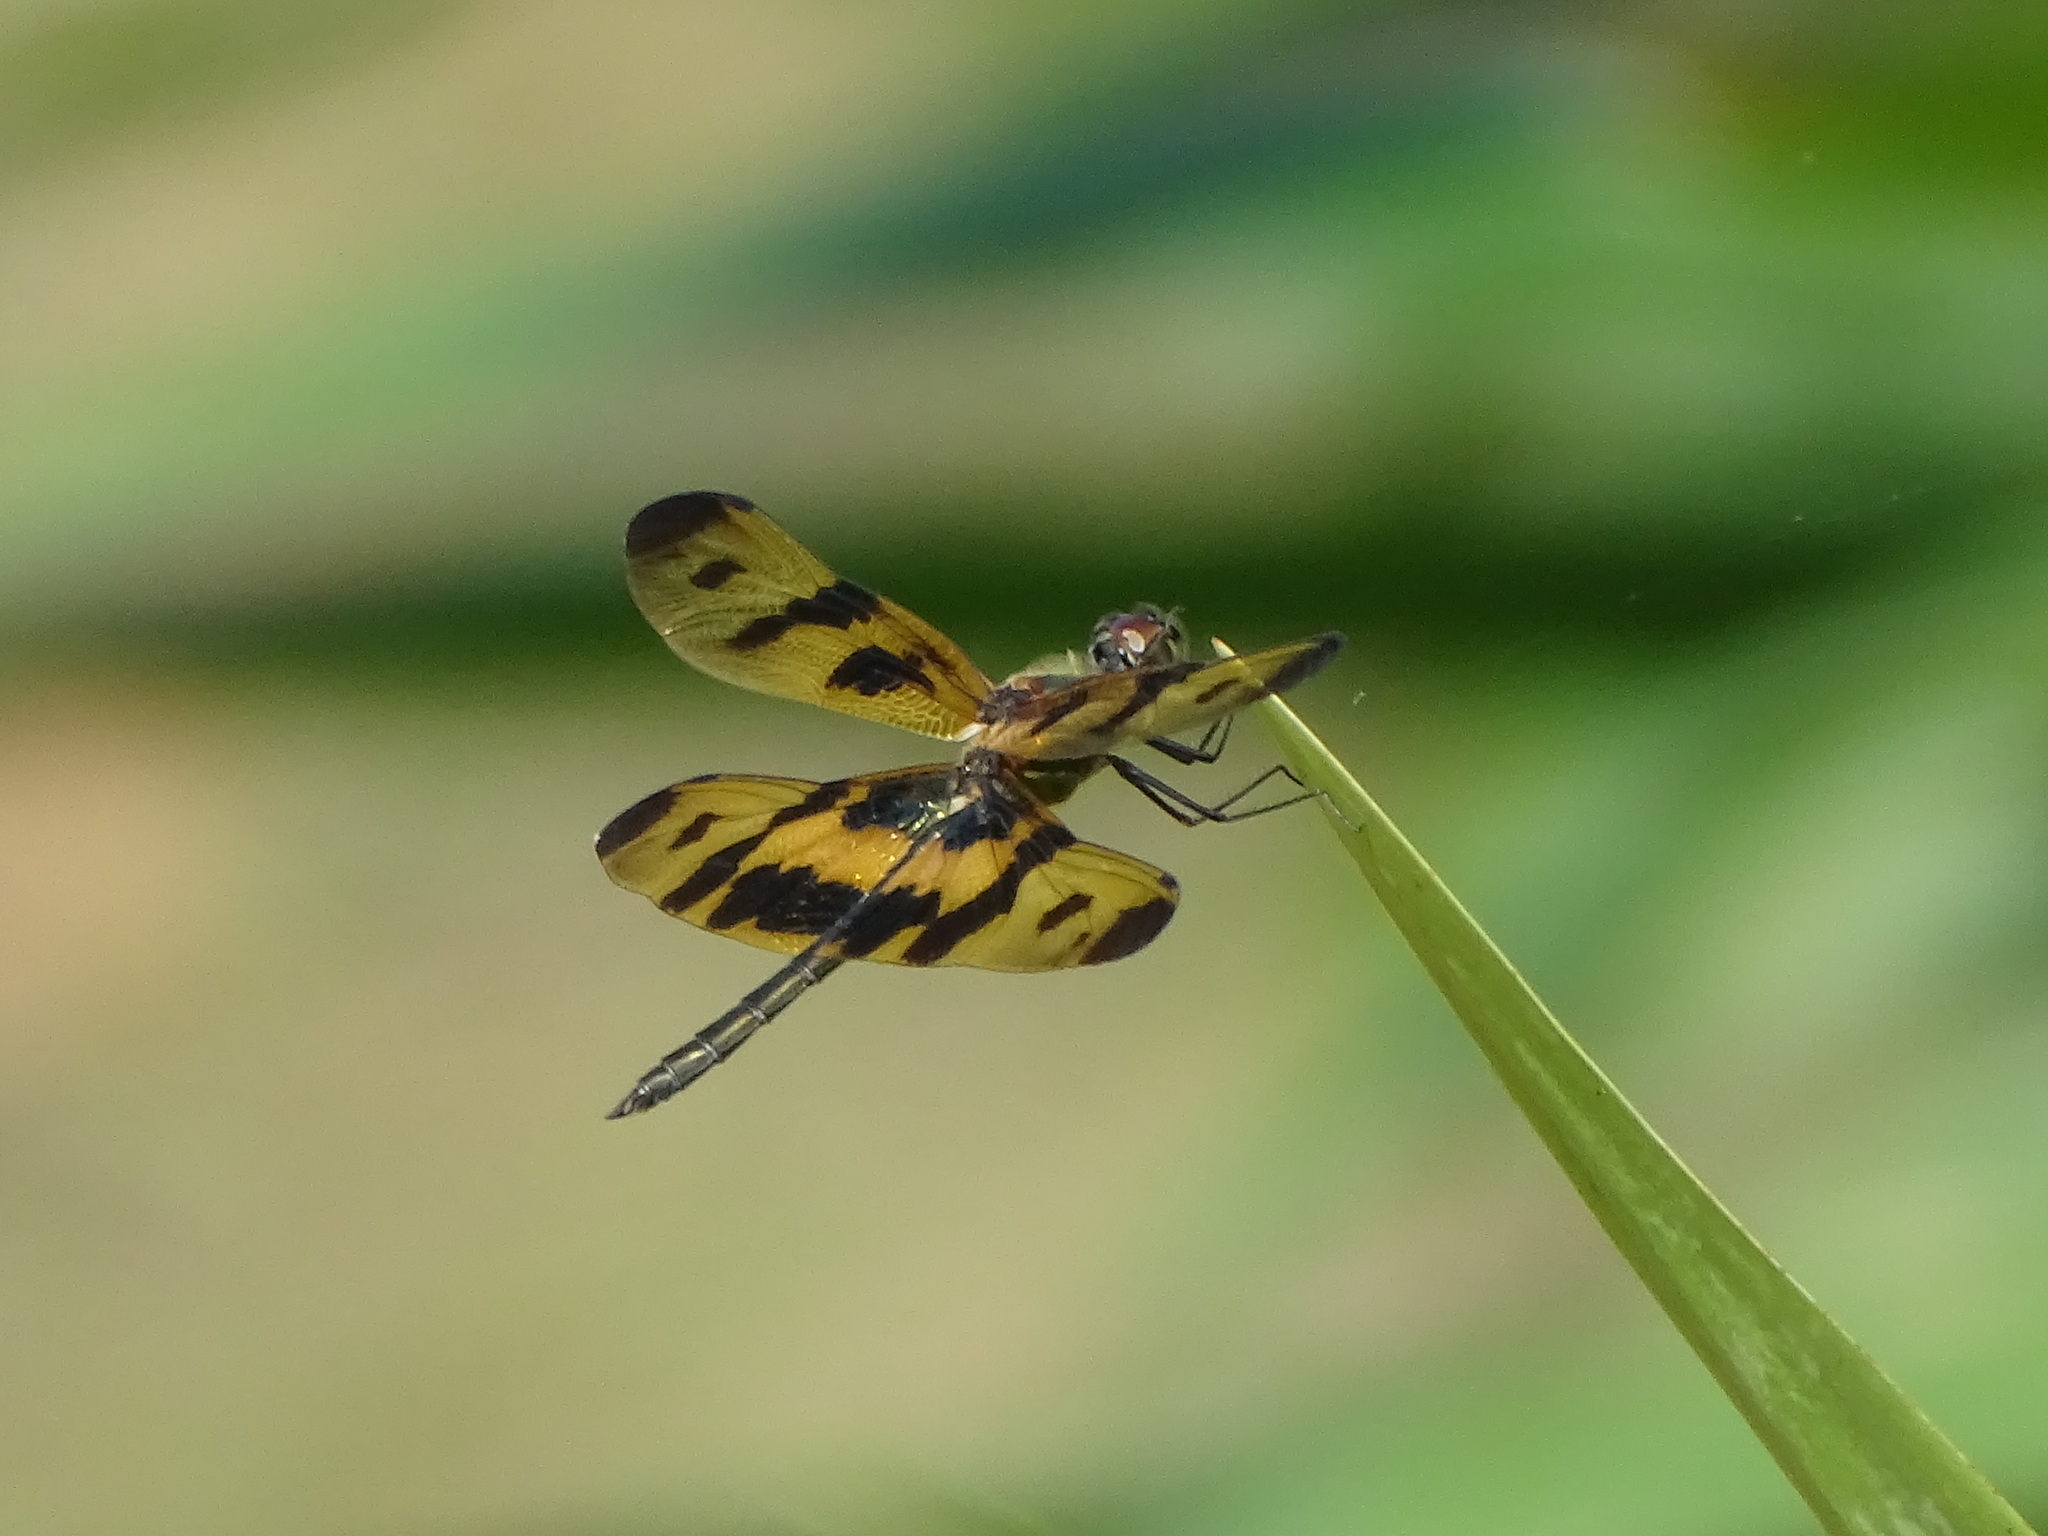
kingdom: Animalia
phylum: Arthropoda
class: Insecta
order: Odonata
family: Libellulidae
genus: Rhyothemis
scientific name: Rhyothemis variegata
